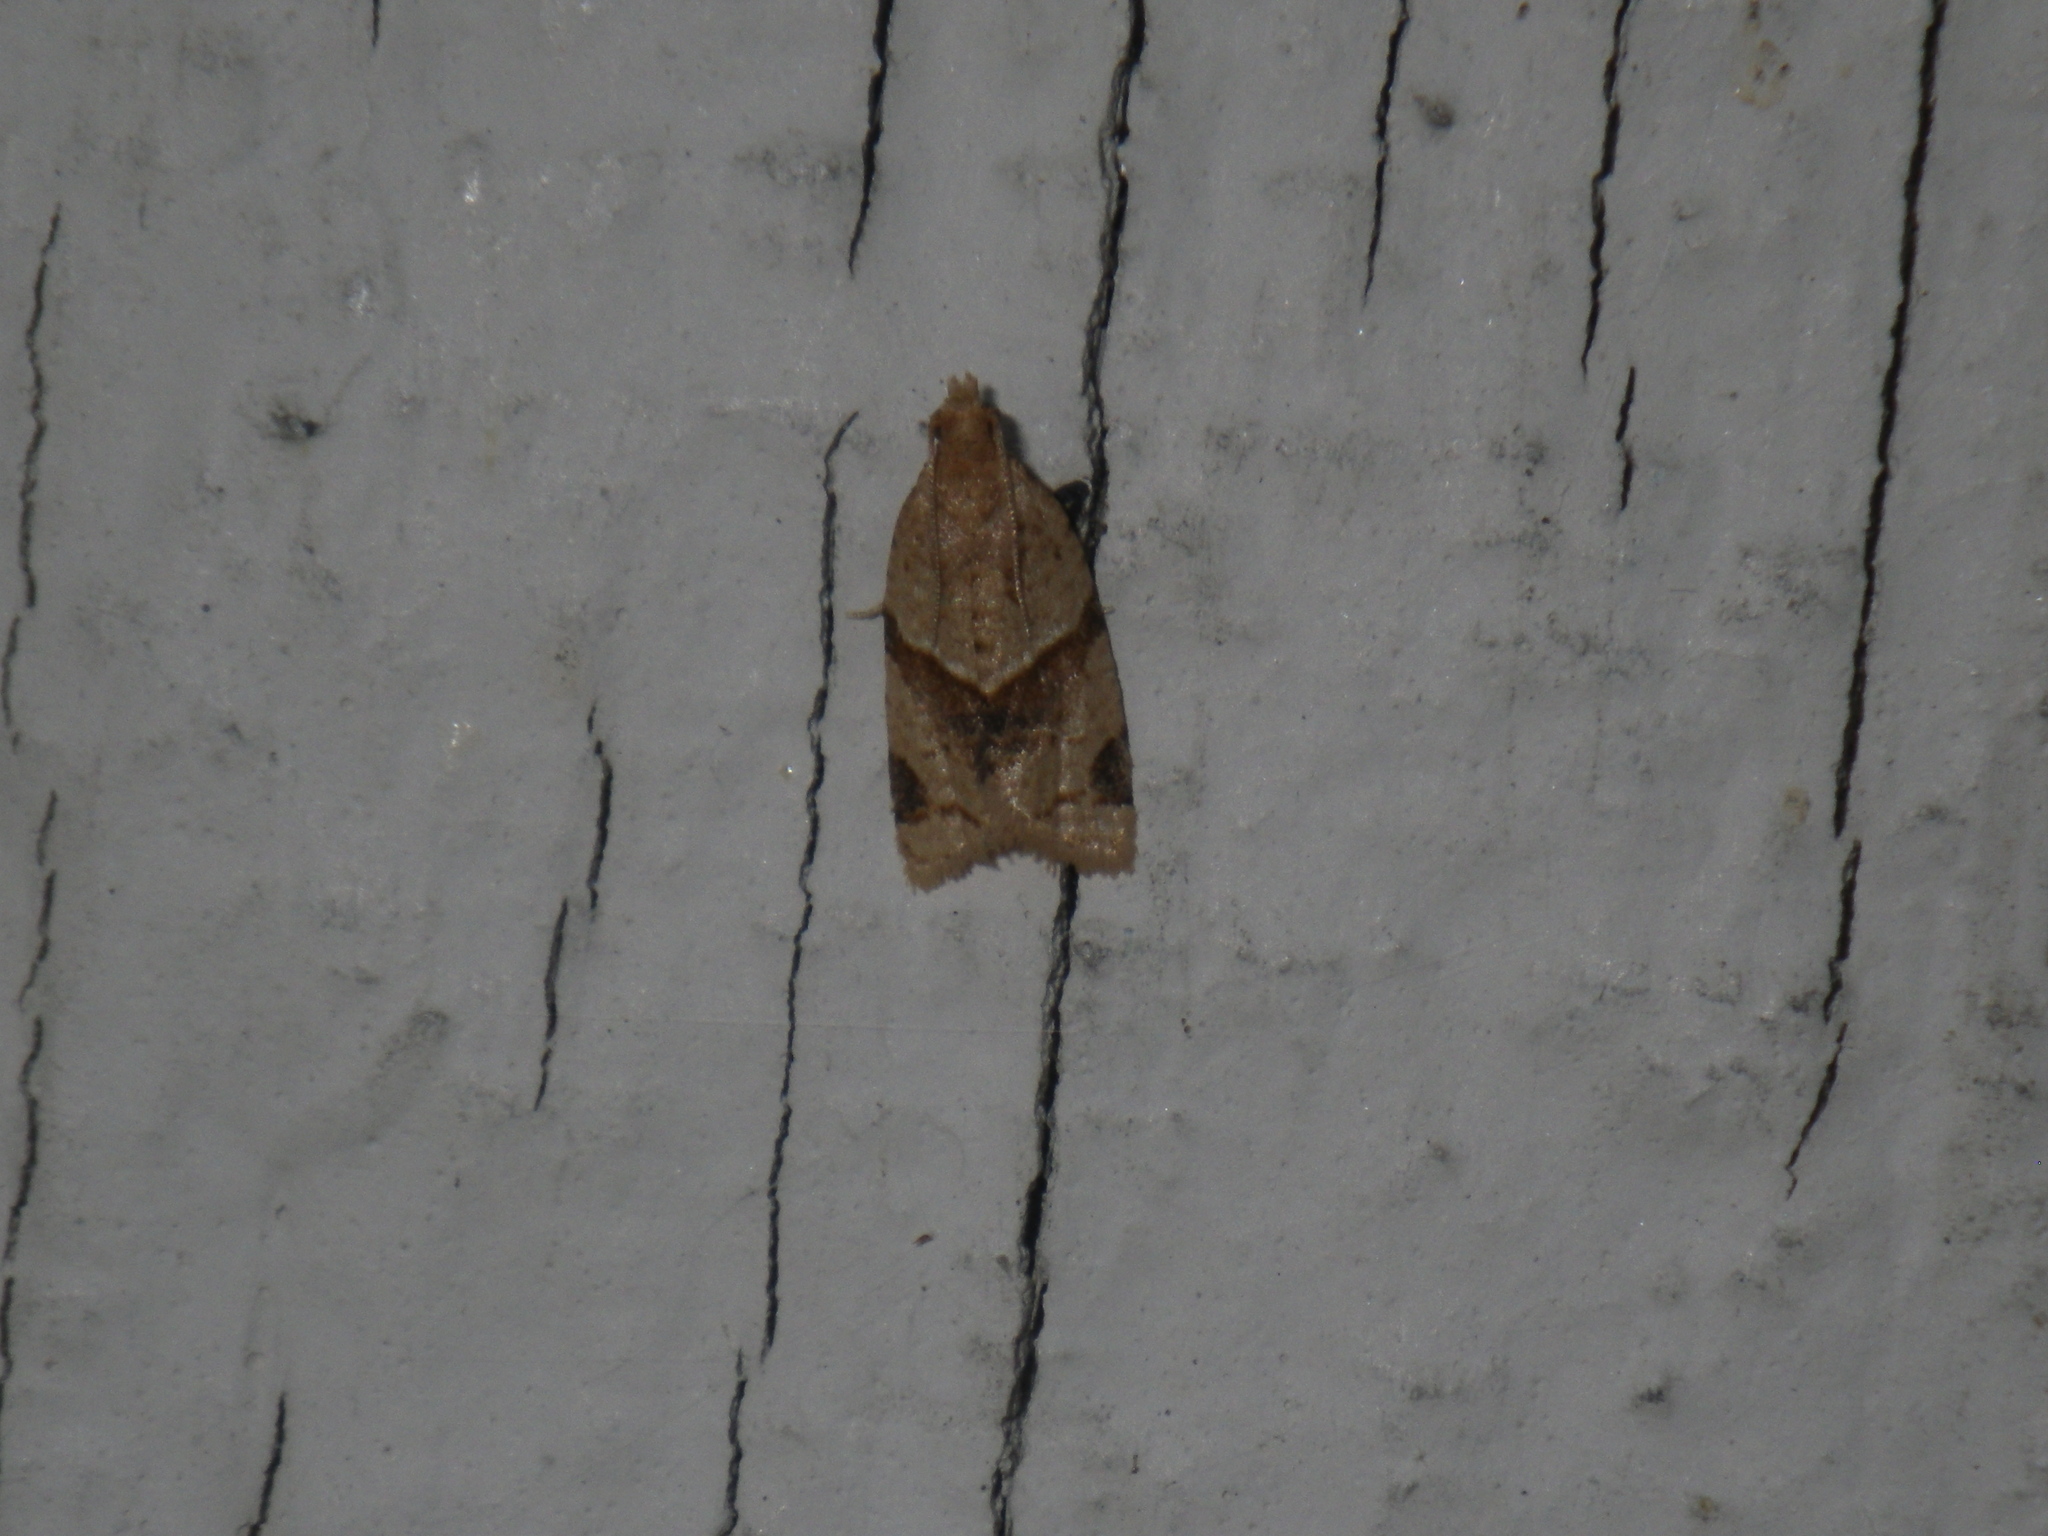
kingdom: Animalia
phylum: Arthropoda
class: Insecta
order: Lepidoptera
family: Tortricidae
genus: Clepsis
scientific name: Clepsis peritana
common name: Garden tortrix
